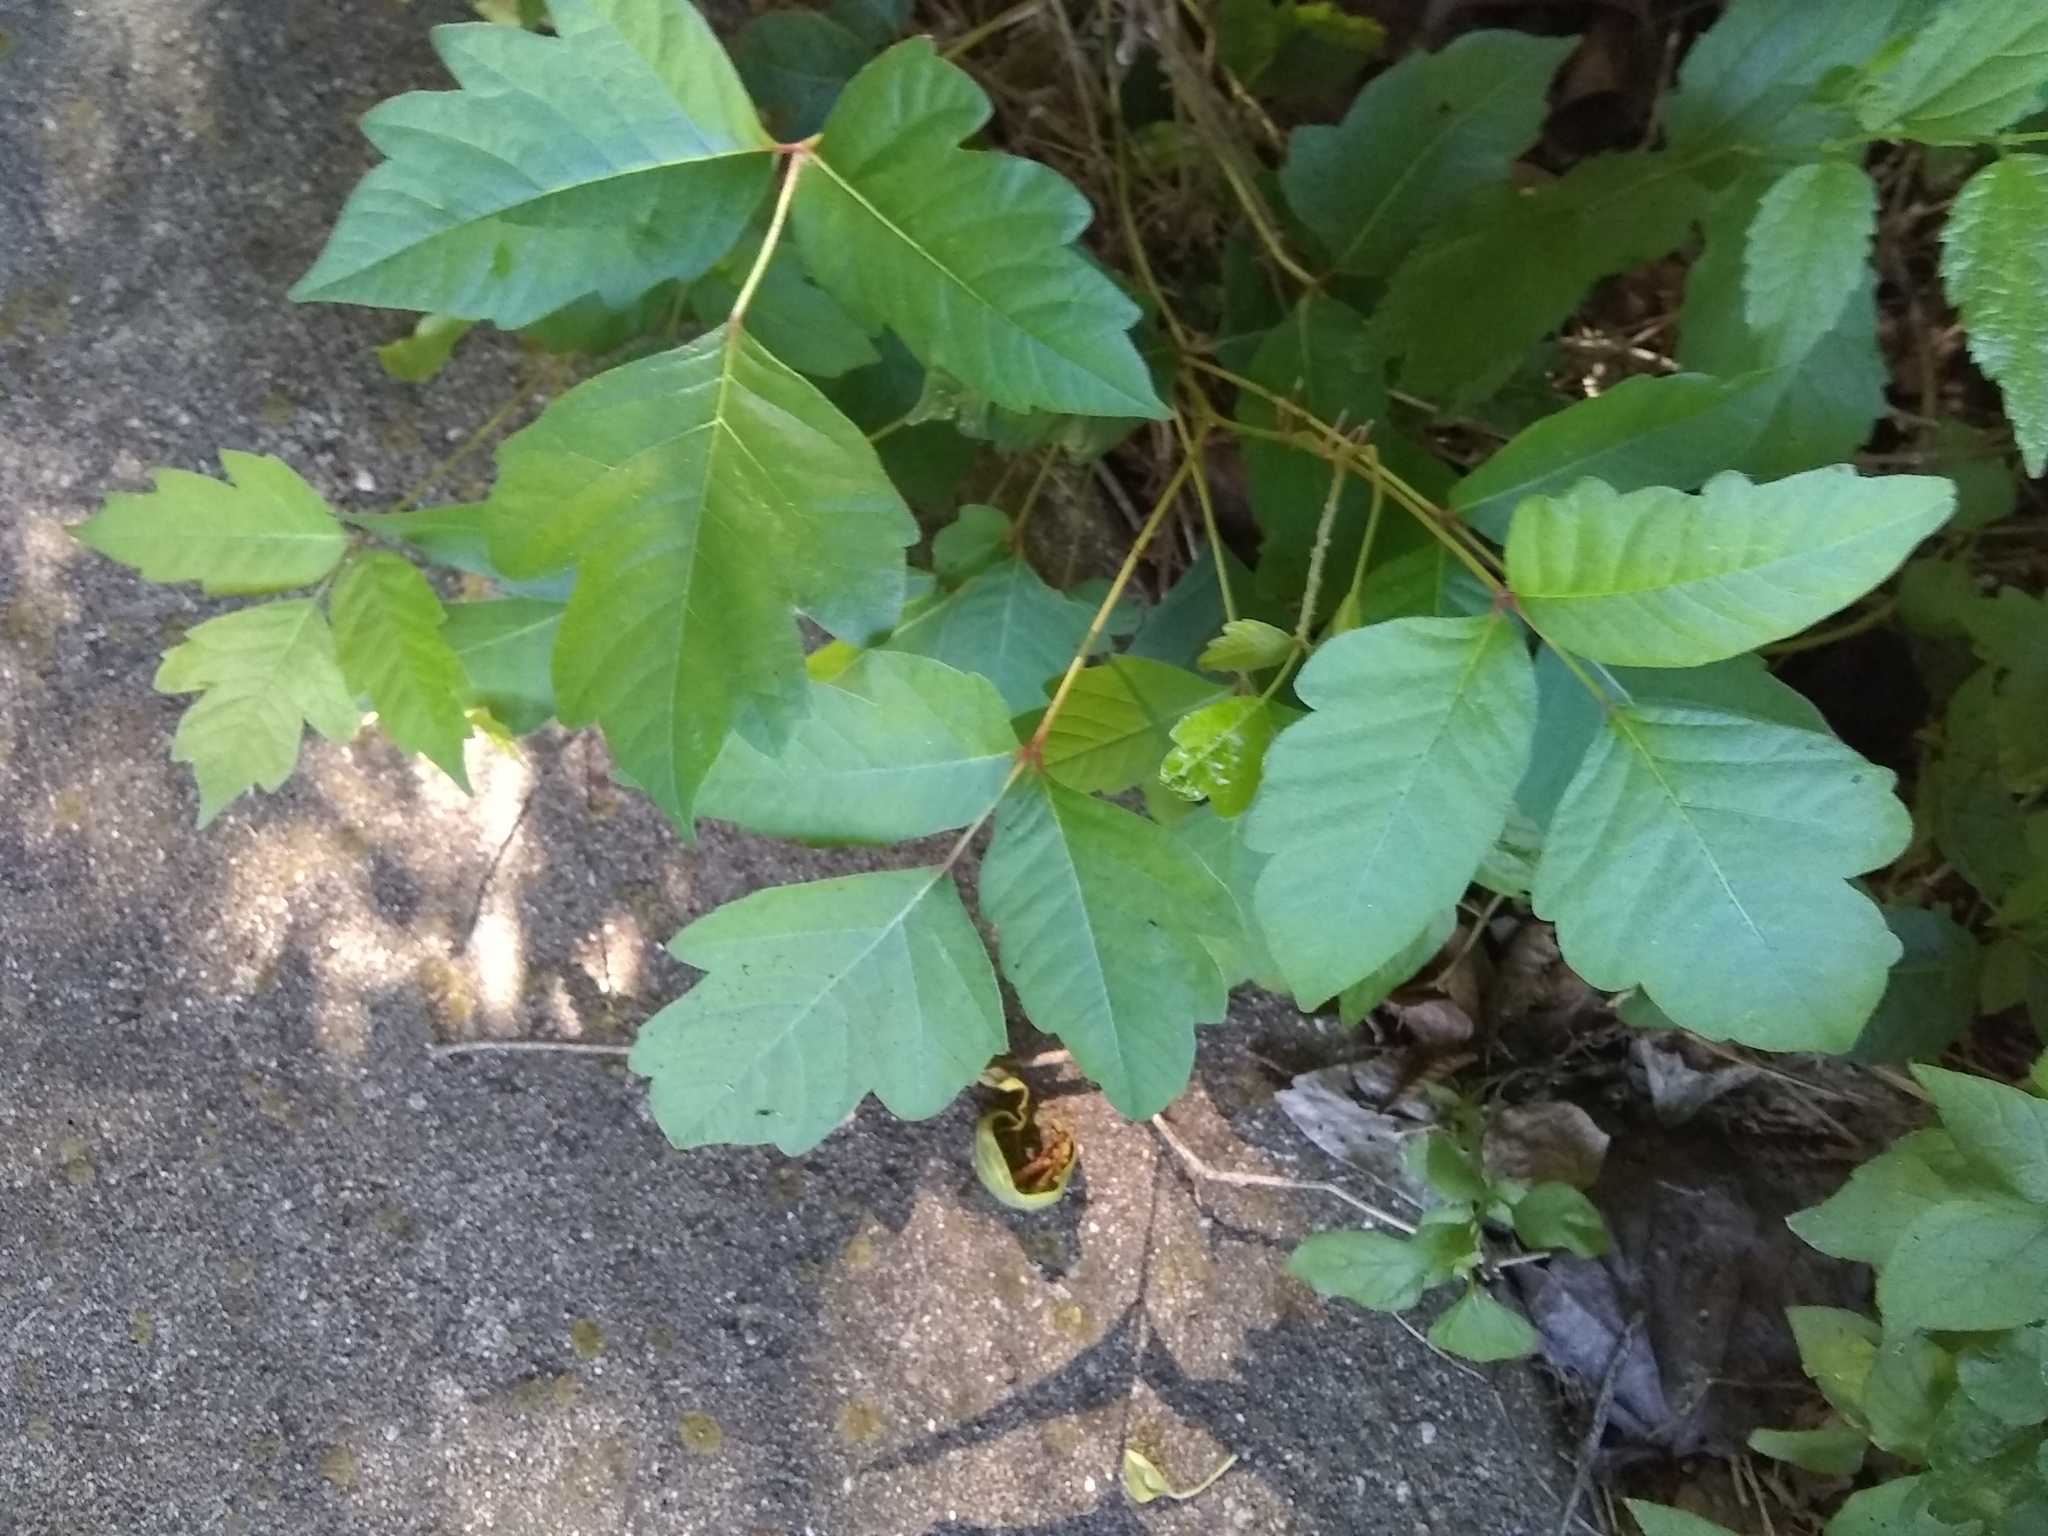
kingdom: Plantae
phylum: Tracheophyta
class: Magnoliopsida
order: Sapindales
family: Anacardiaceae
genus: Toxicodendron
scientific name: Toxicodendron radicans
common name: Poison ivy
